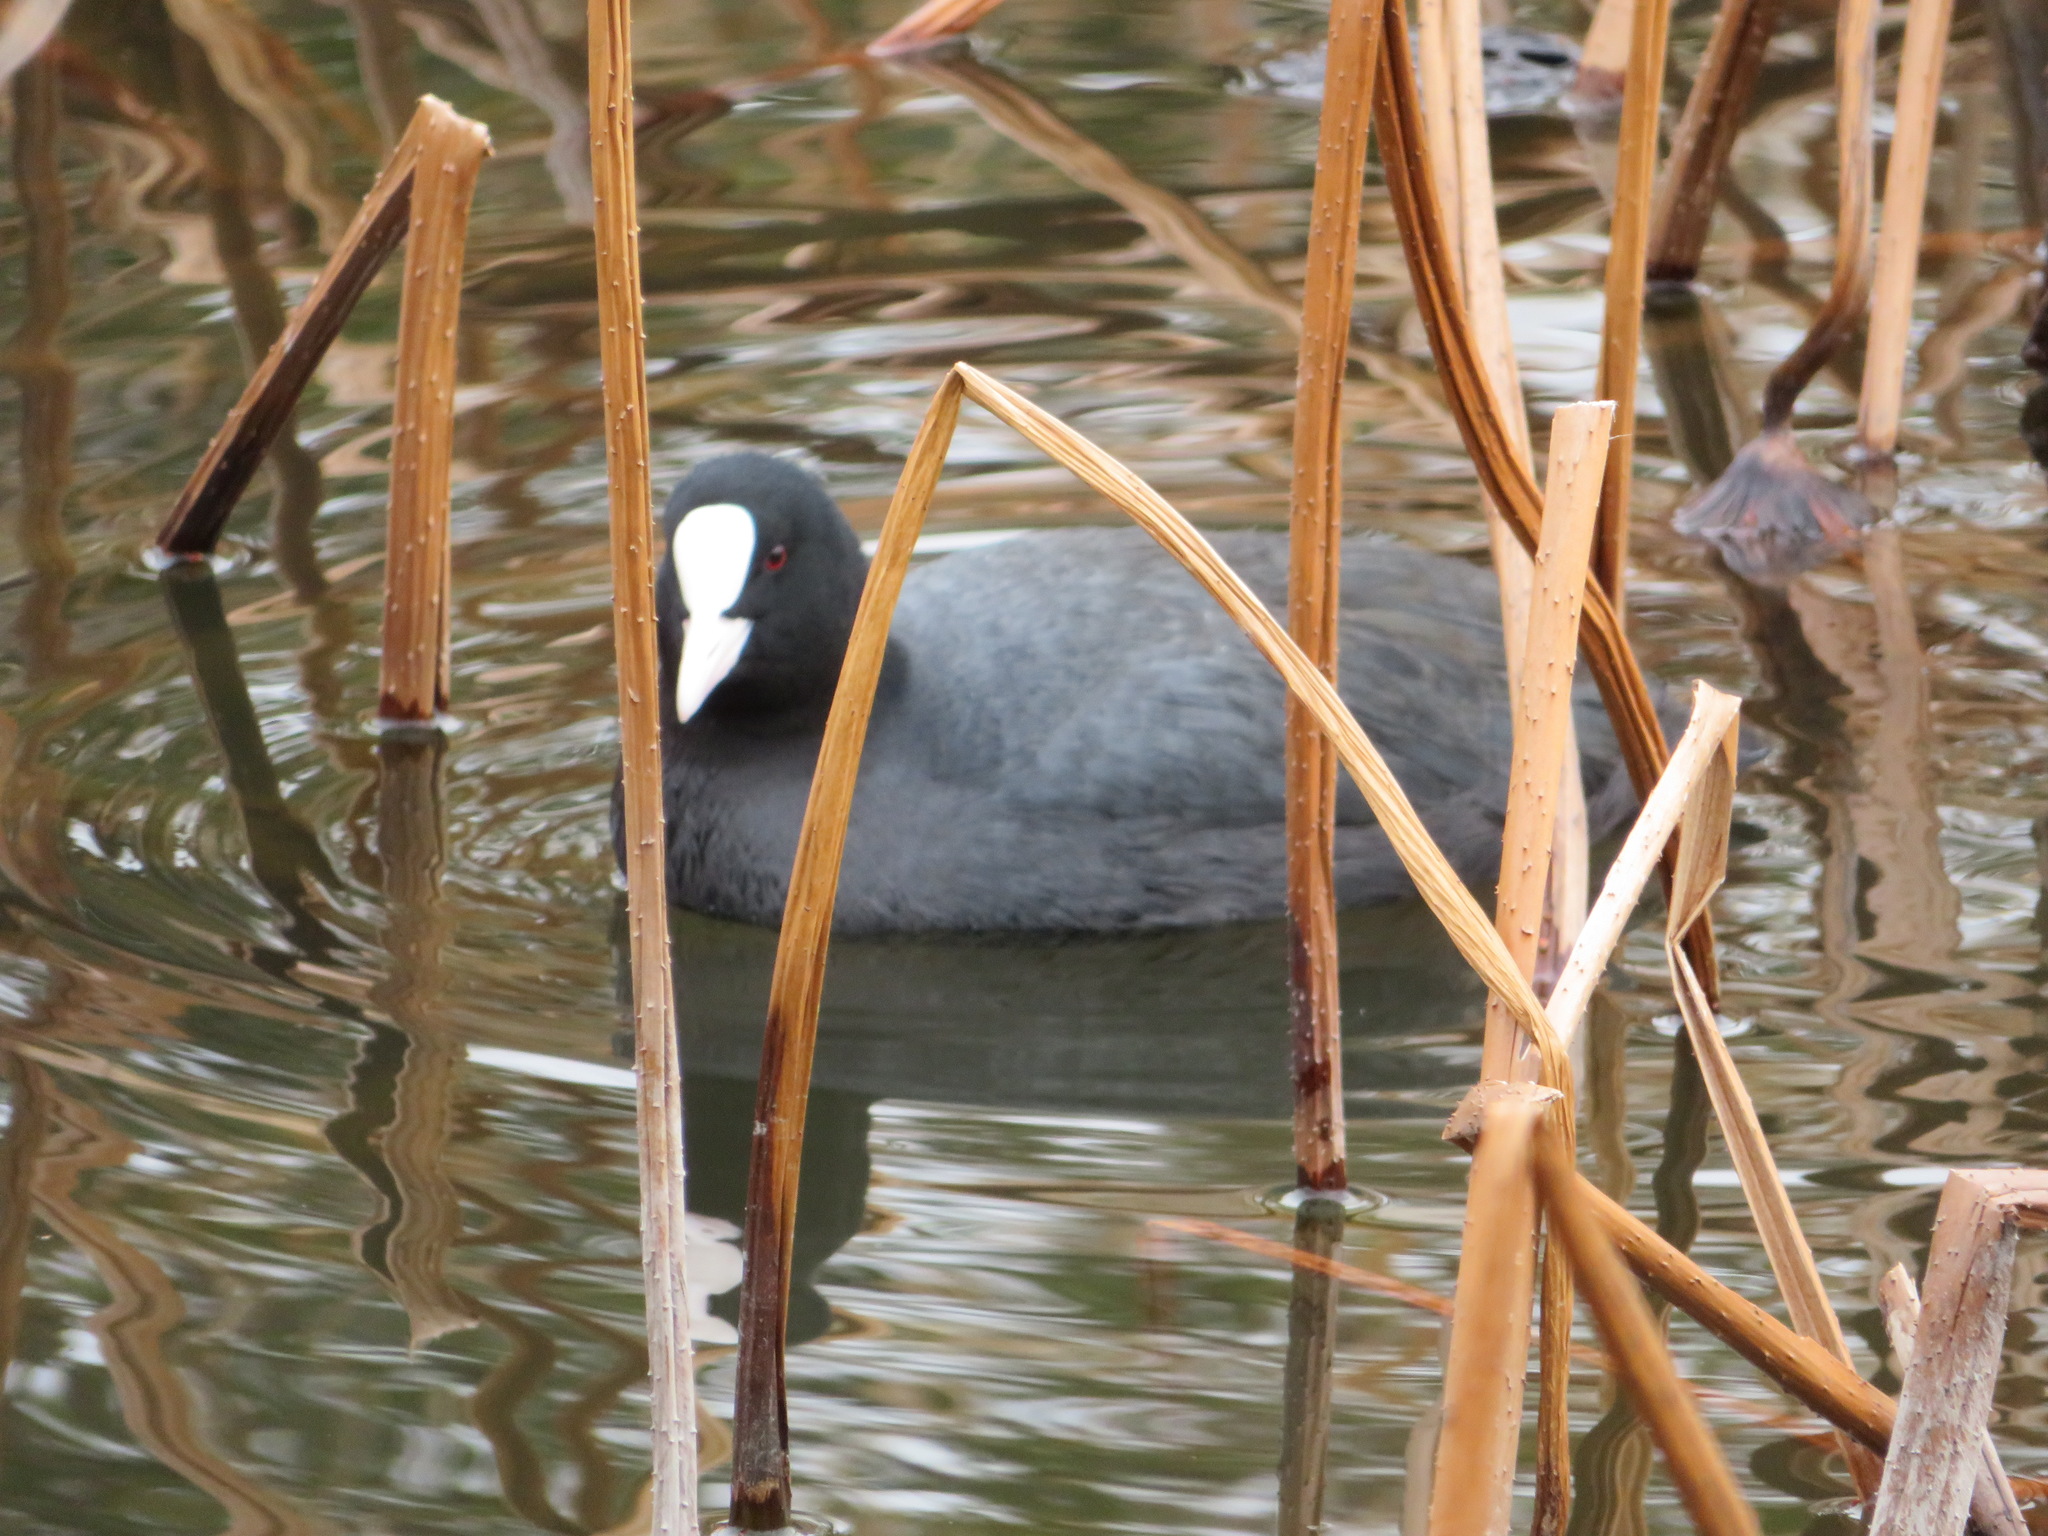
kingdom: Animalia
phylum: Chordata
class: Aves
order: Gruiformes
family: Rallidae
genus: Fulica
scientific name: Fulica atra
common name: Eurasian coot
